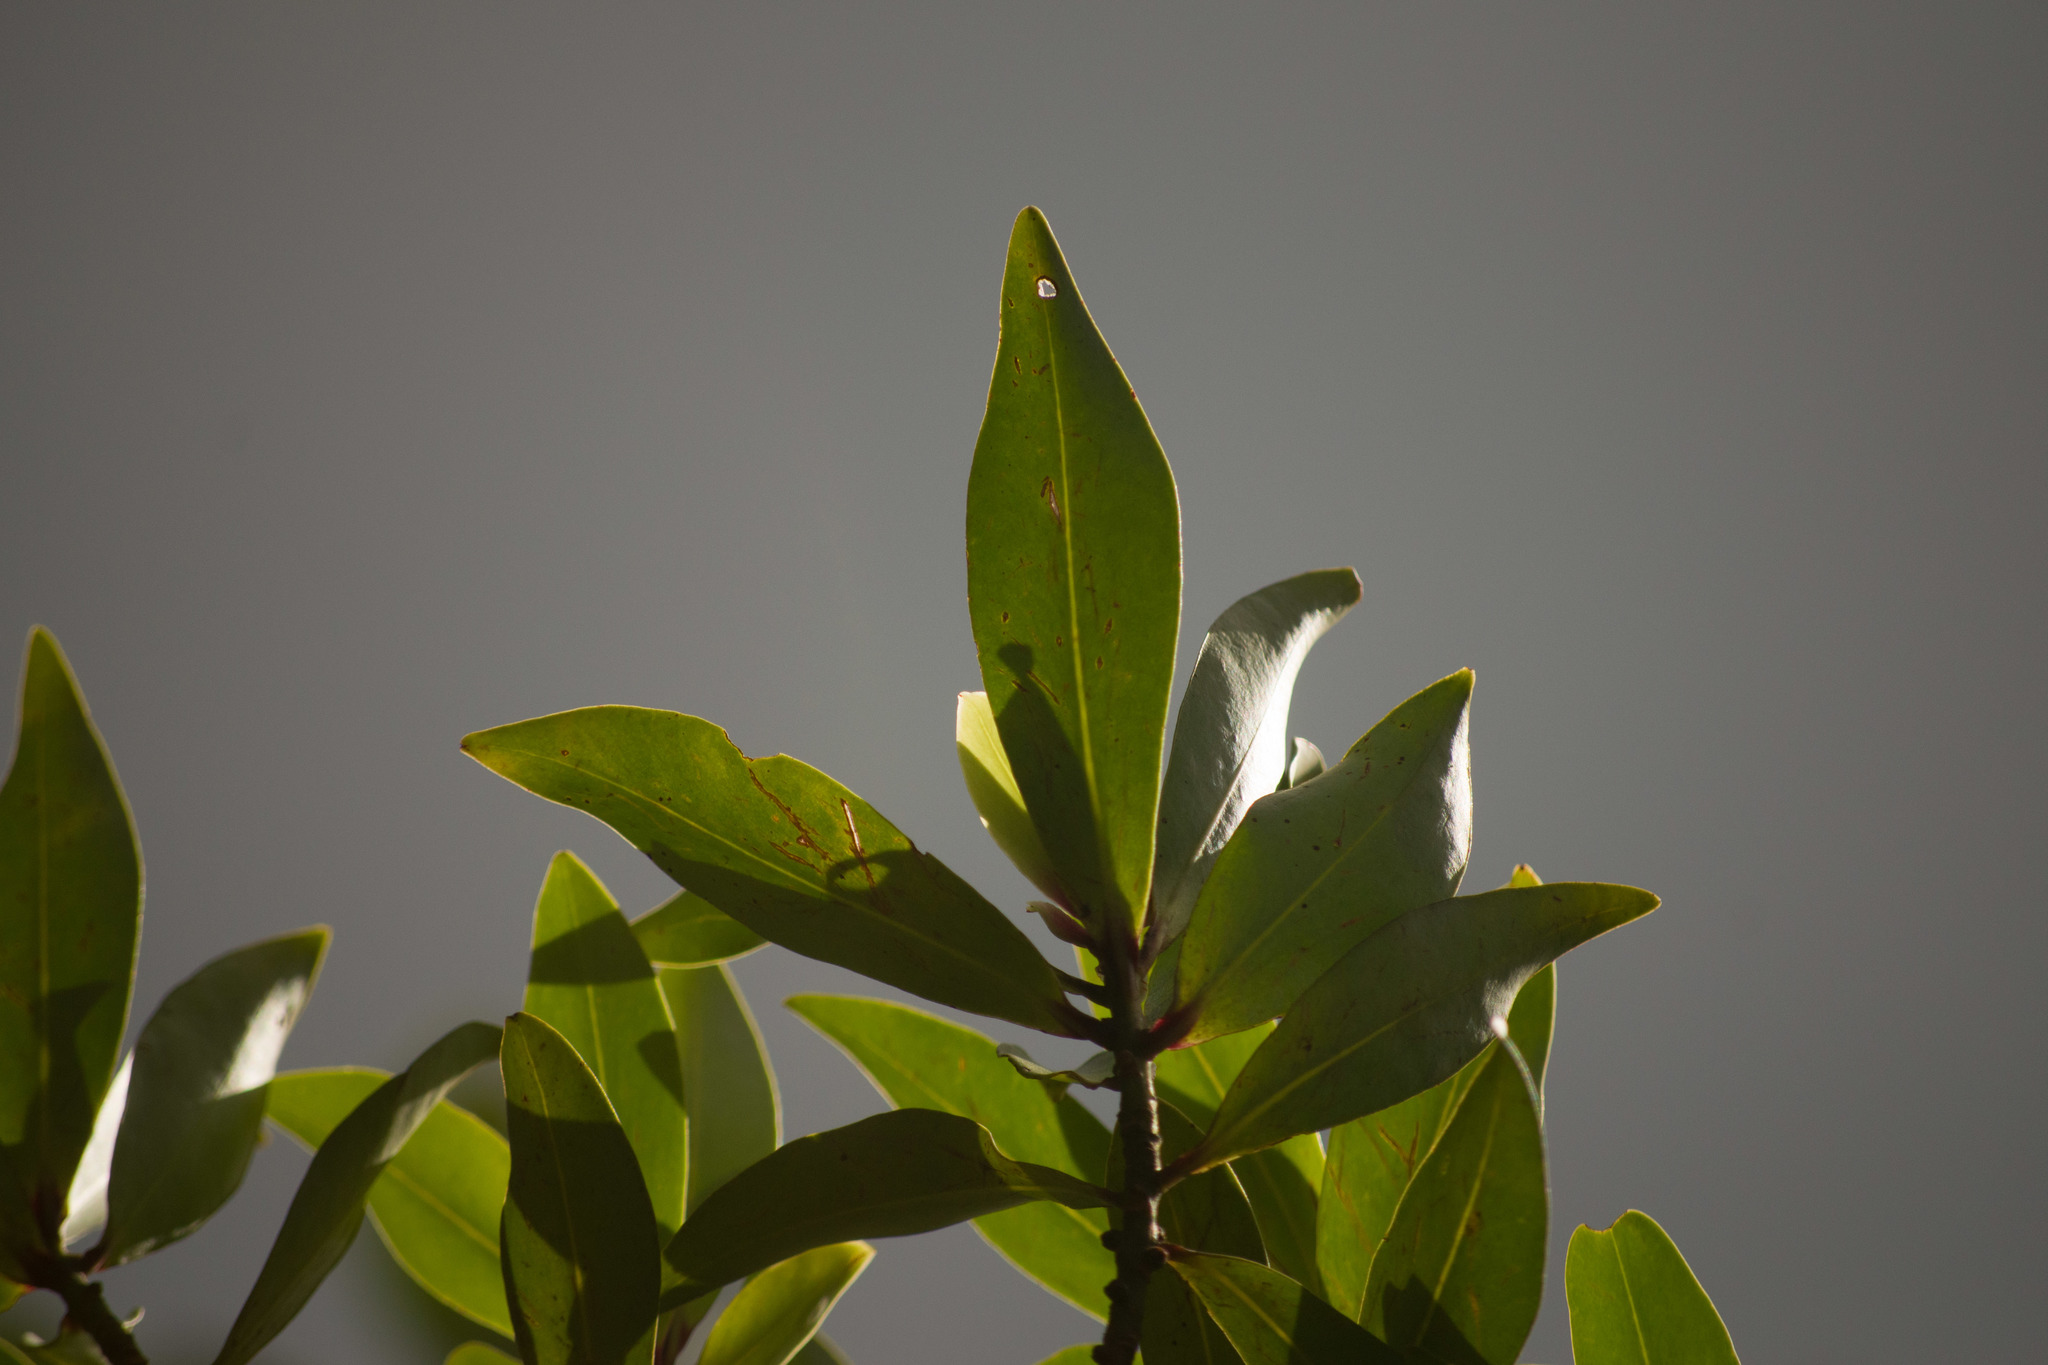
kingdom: Plantae
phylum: Tracheophyta
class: Magnoliopsida
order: Ericales
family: Primulaceae
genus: Myrsine
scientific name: Myrsine lessertiana
